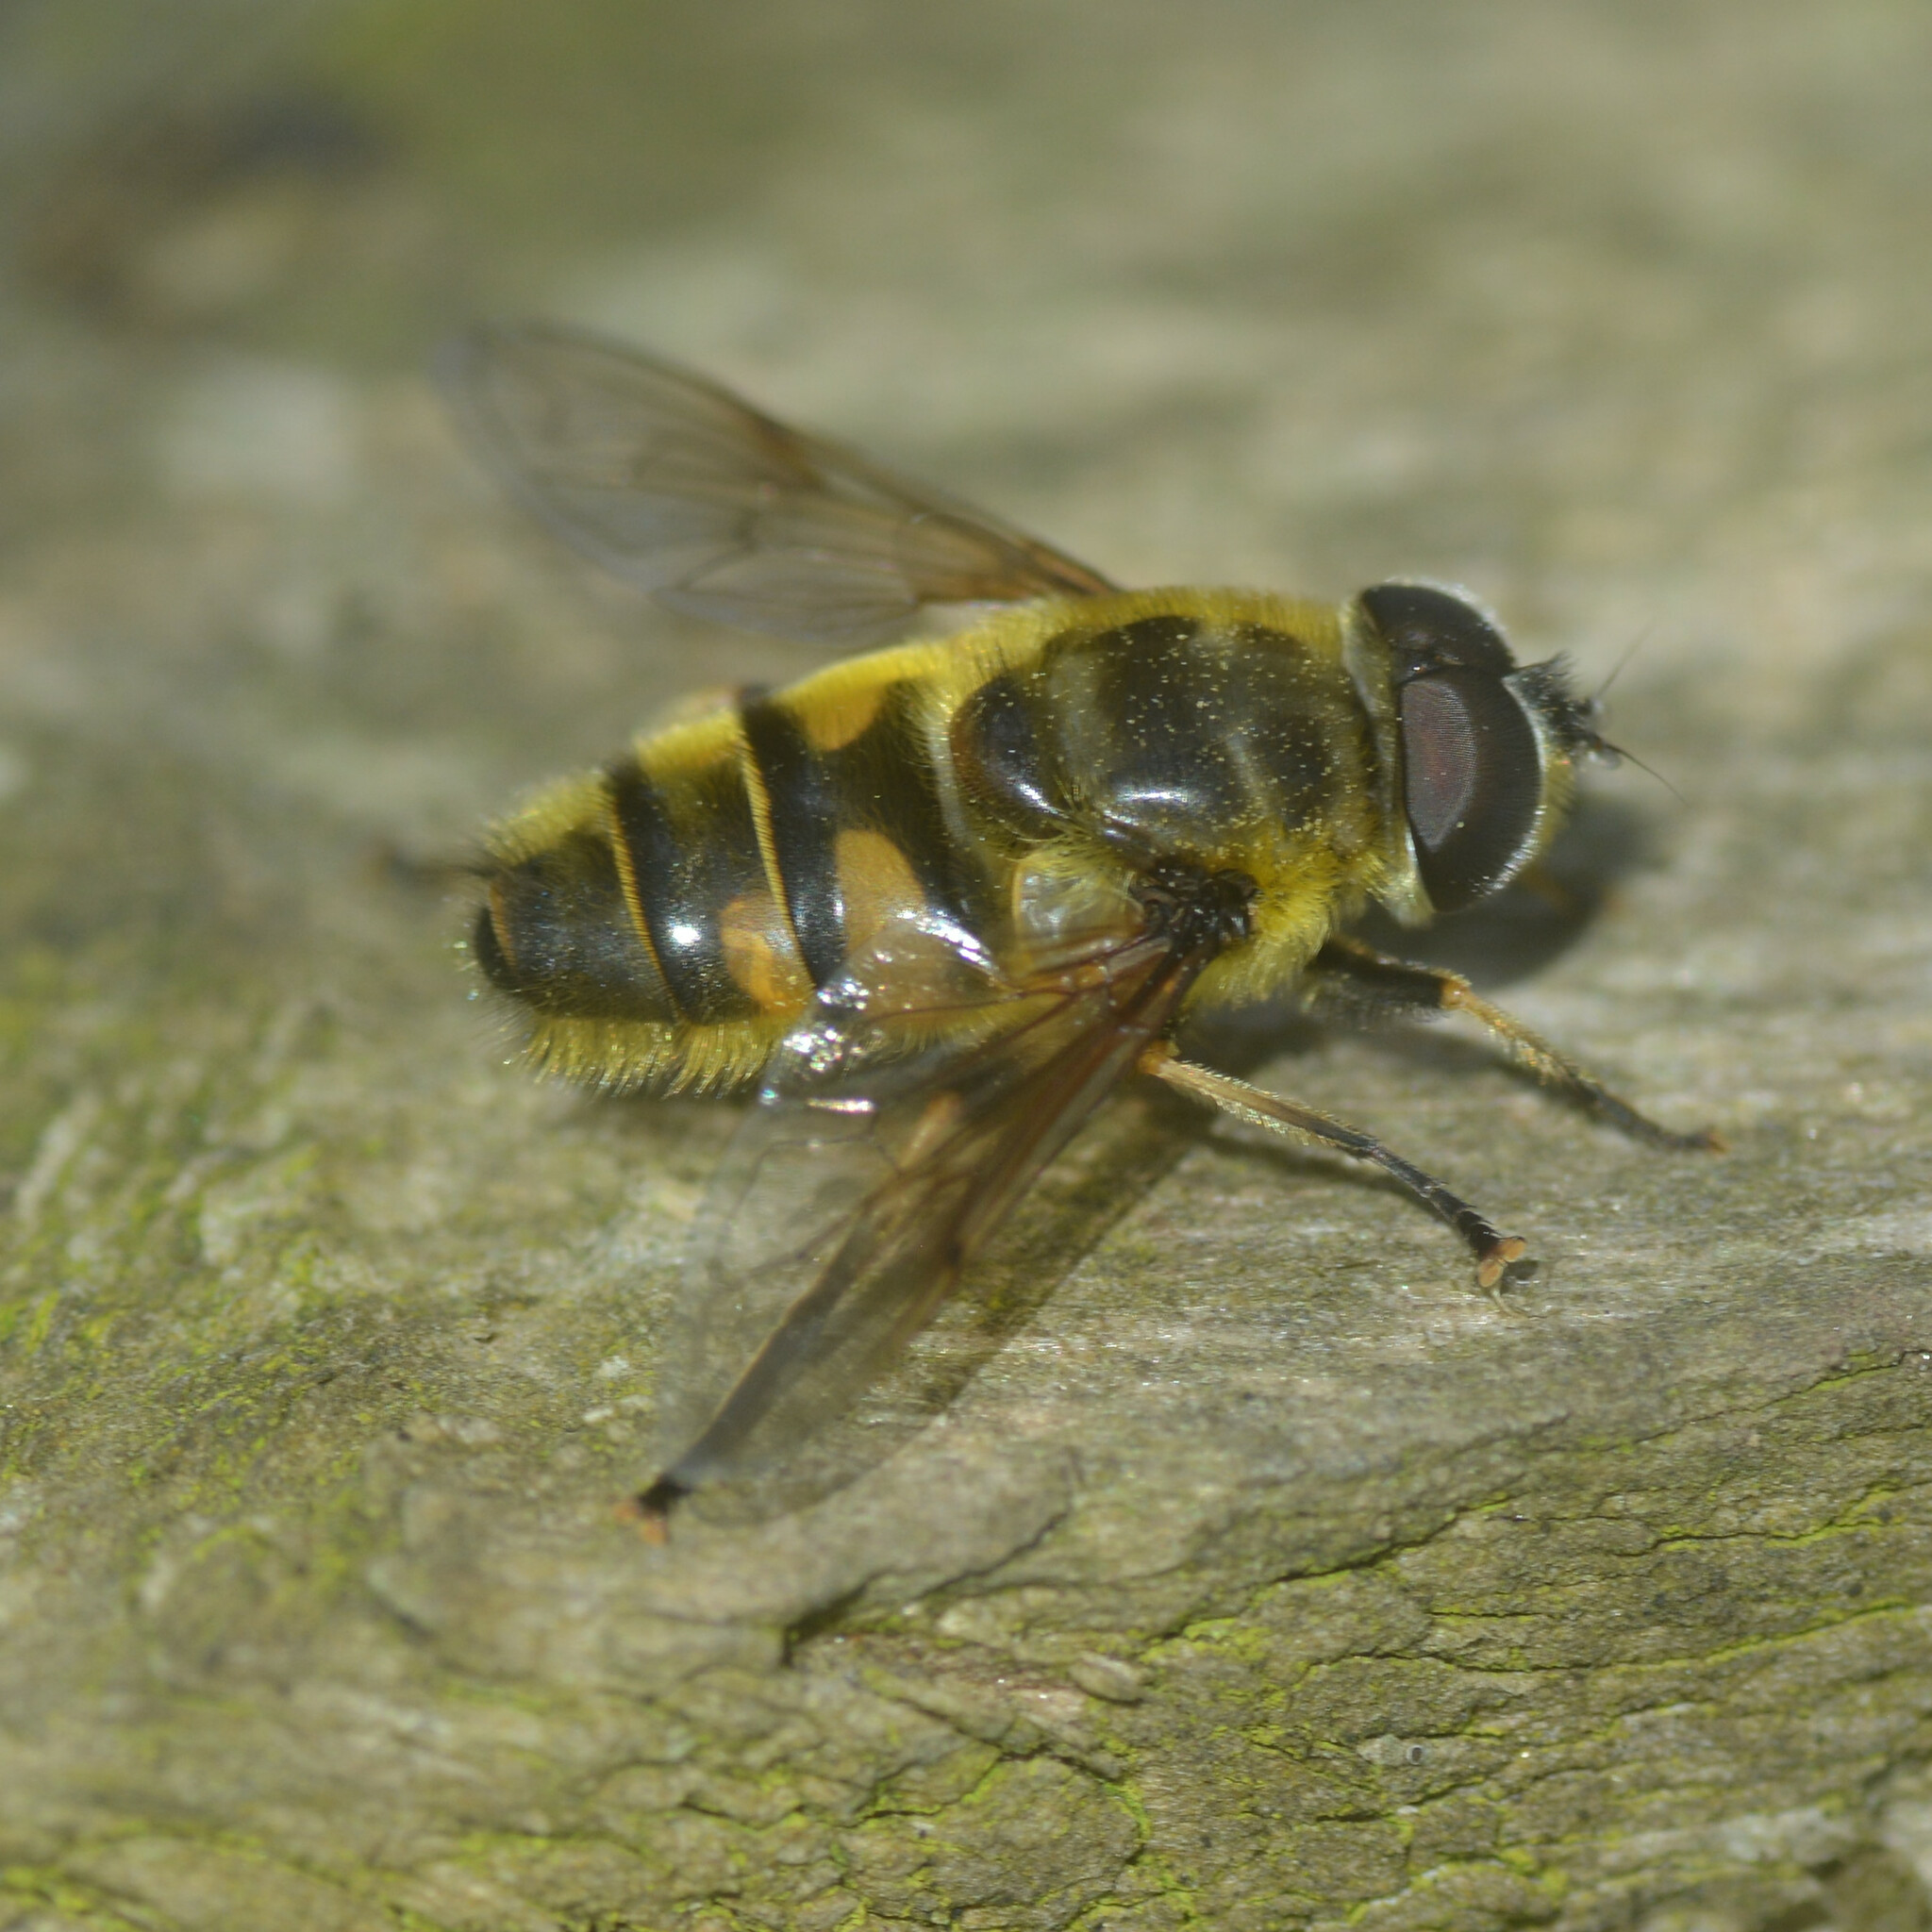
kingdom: Animalia
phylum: Arthropoda
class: Insecta
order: Diptera
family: Syrphidae
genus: Myathropa
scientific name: Myathropa florea
